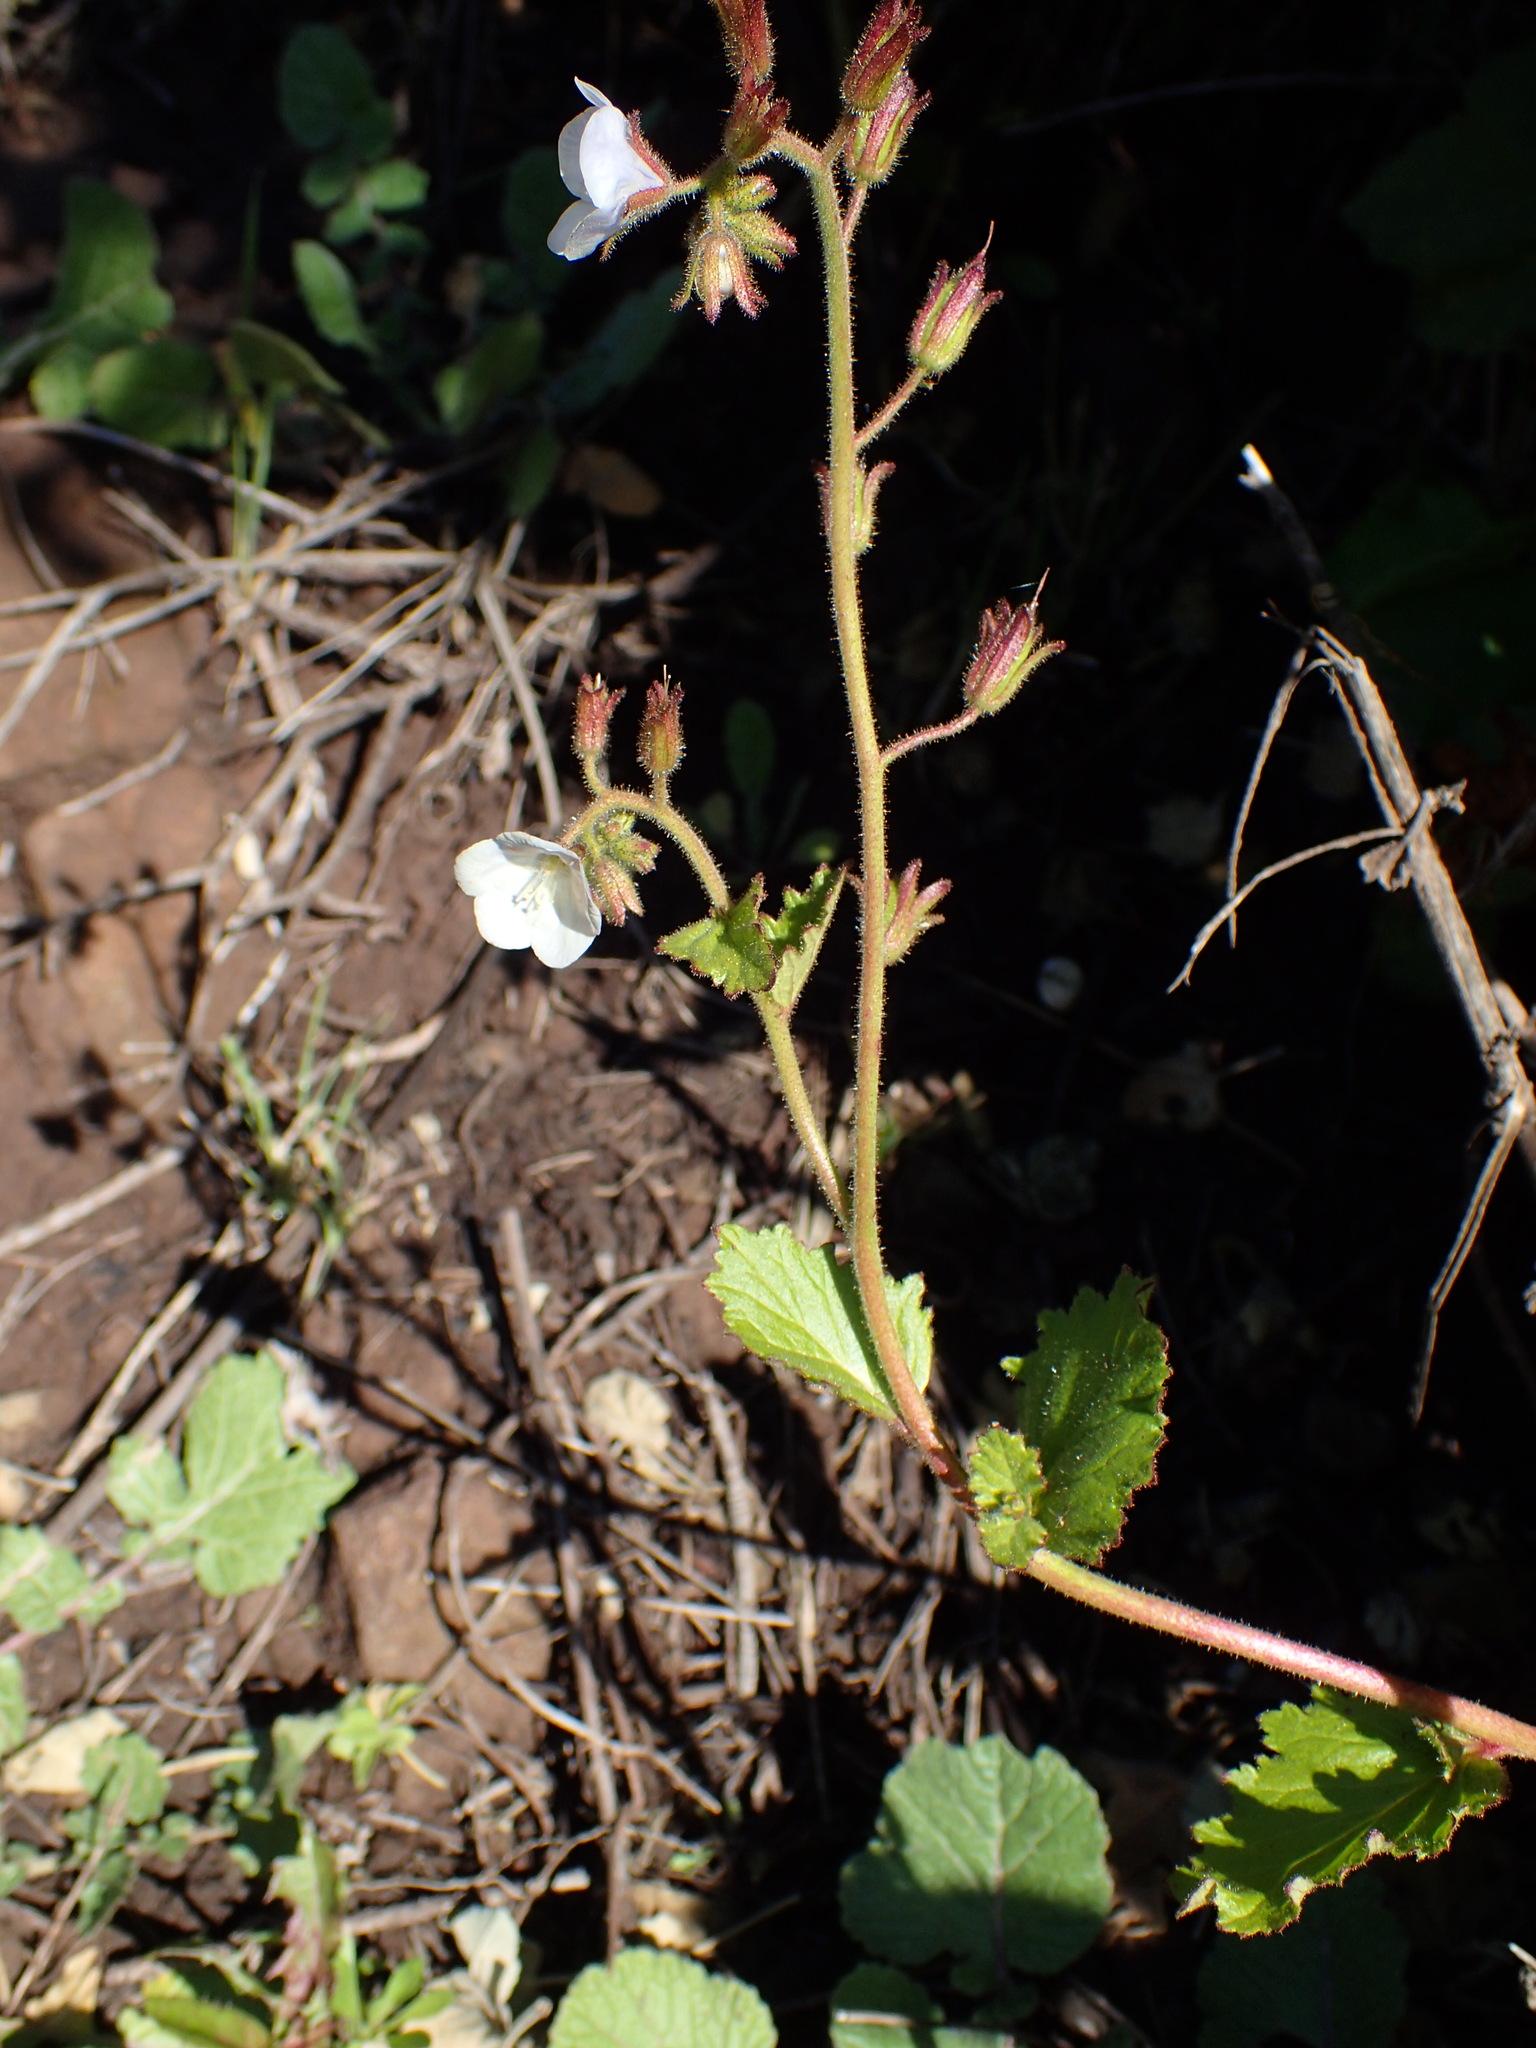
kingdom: Plantae
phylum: Tracheophyta
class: Magnoliopsida
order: Boraginales
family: Hydrophyllaceae
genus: Phacelia
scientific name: Phacelia viscida
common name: Sticky phacelia
